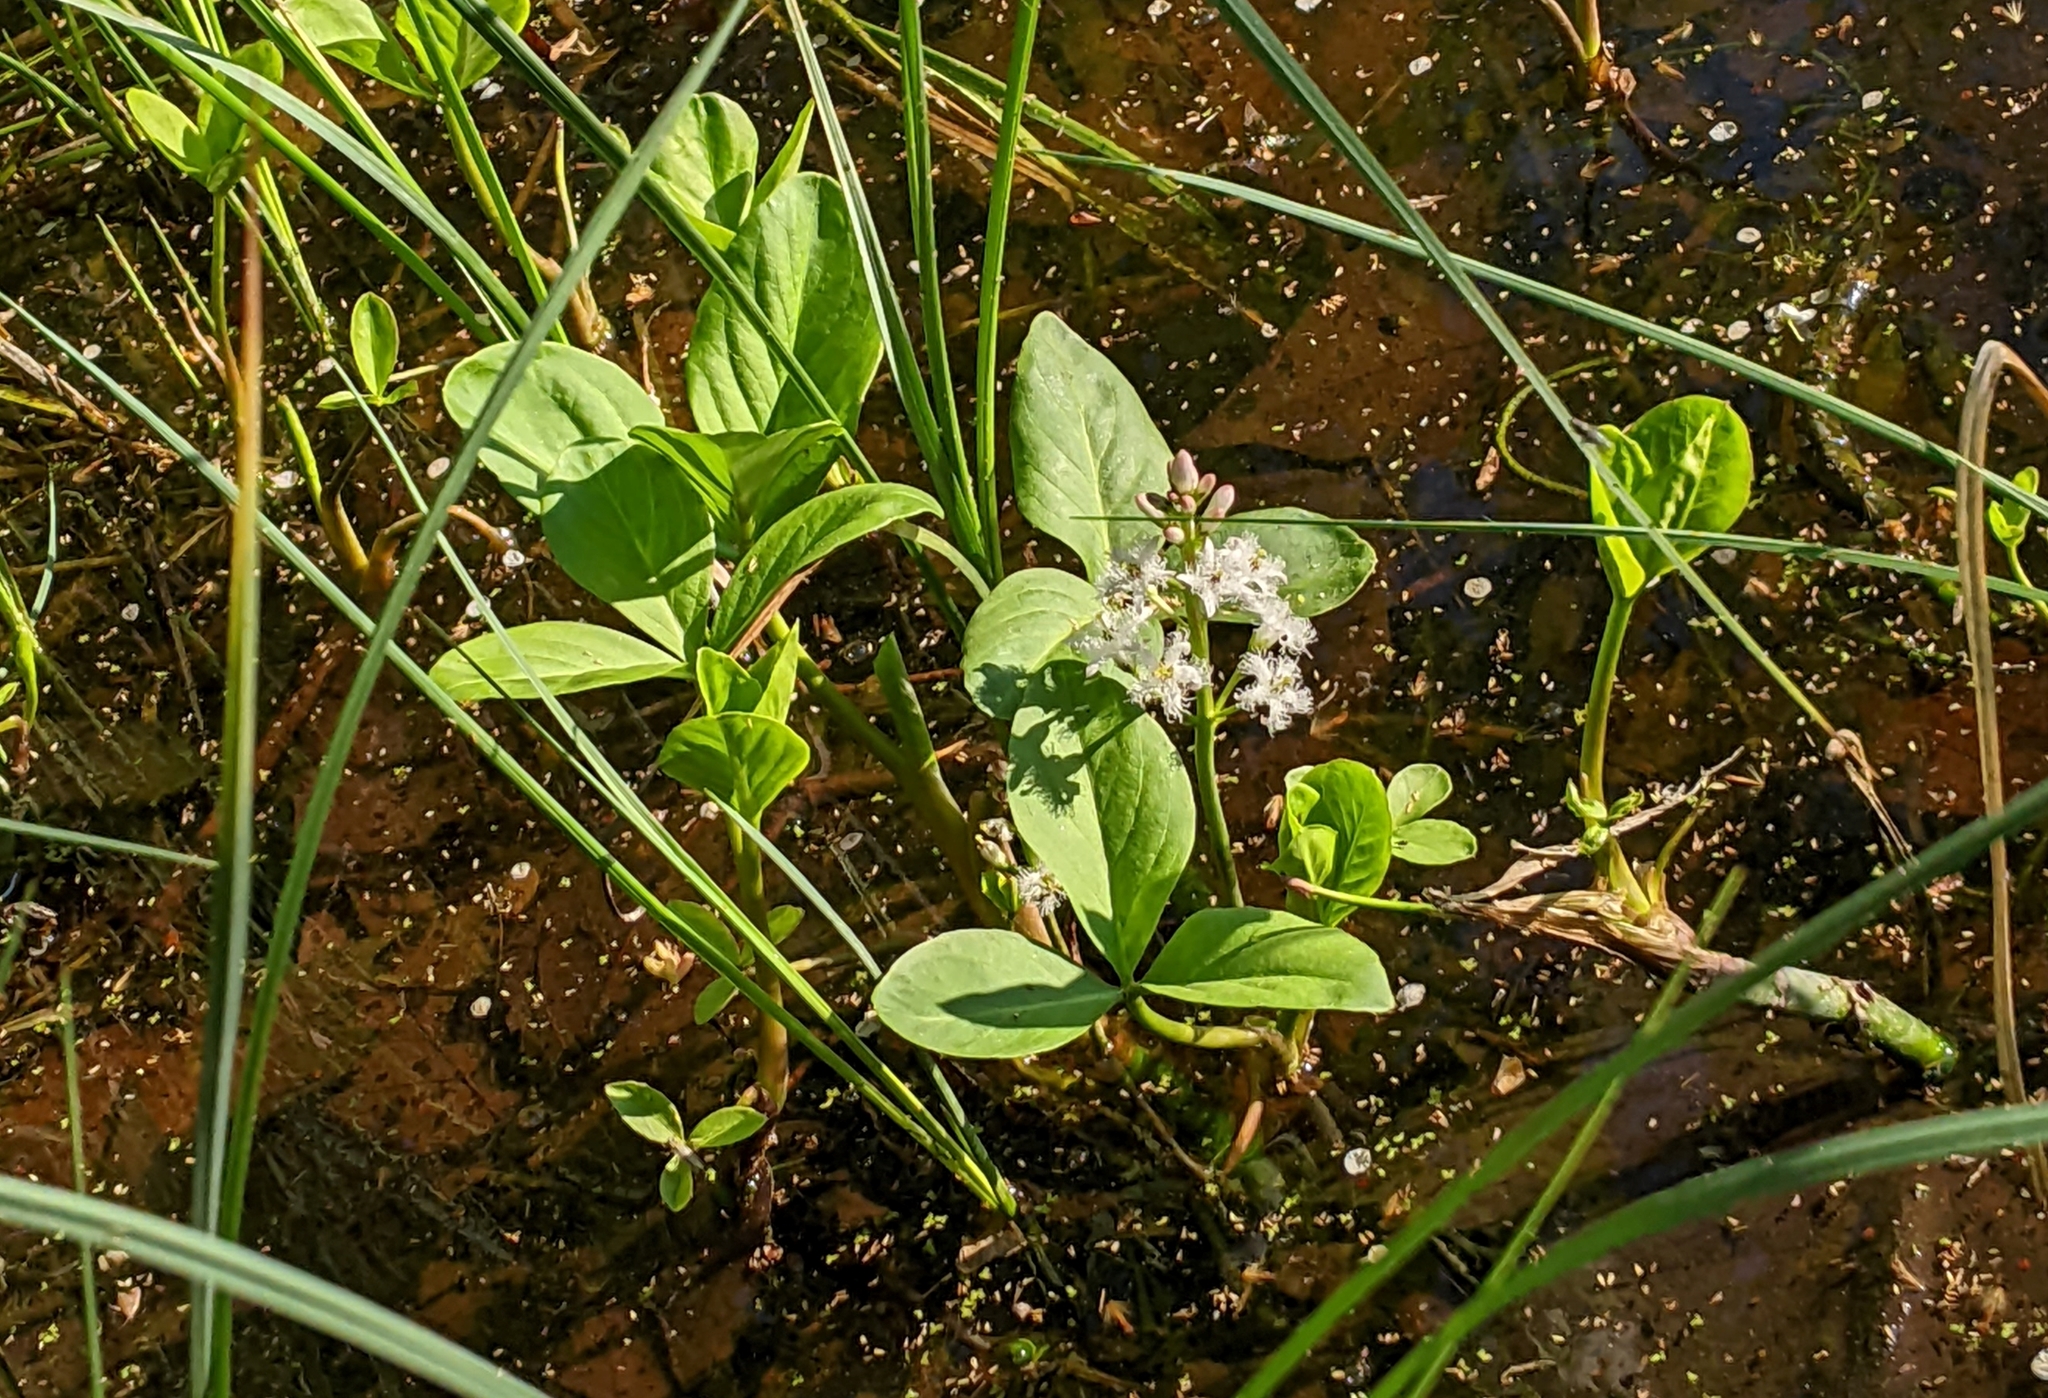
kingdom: Plantae
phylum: Tracheophyta
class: Magnoliopsida
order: Asterales
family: Menyanthaceae
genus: Menyanthes
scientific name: Menyanthes trifoliata
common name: Bogbean
